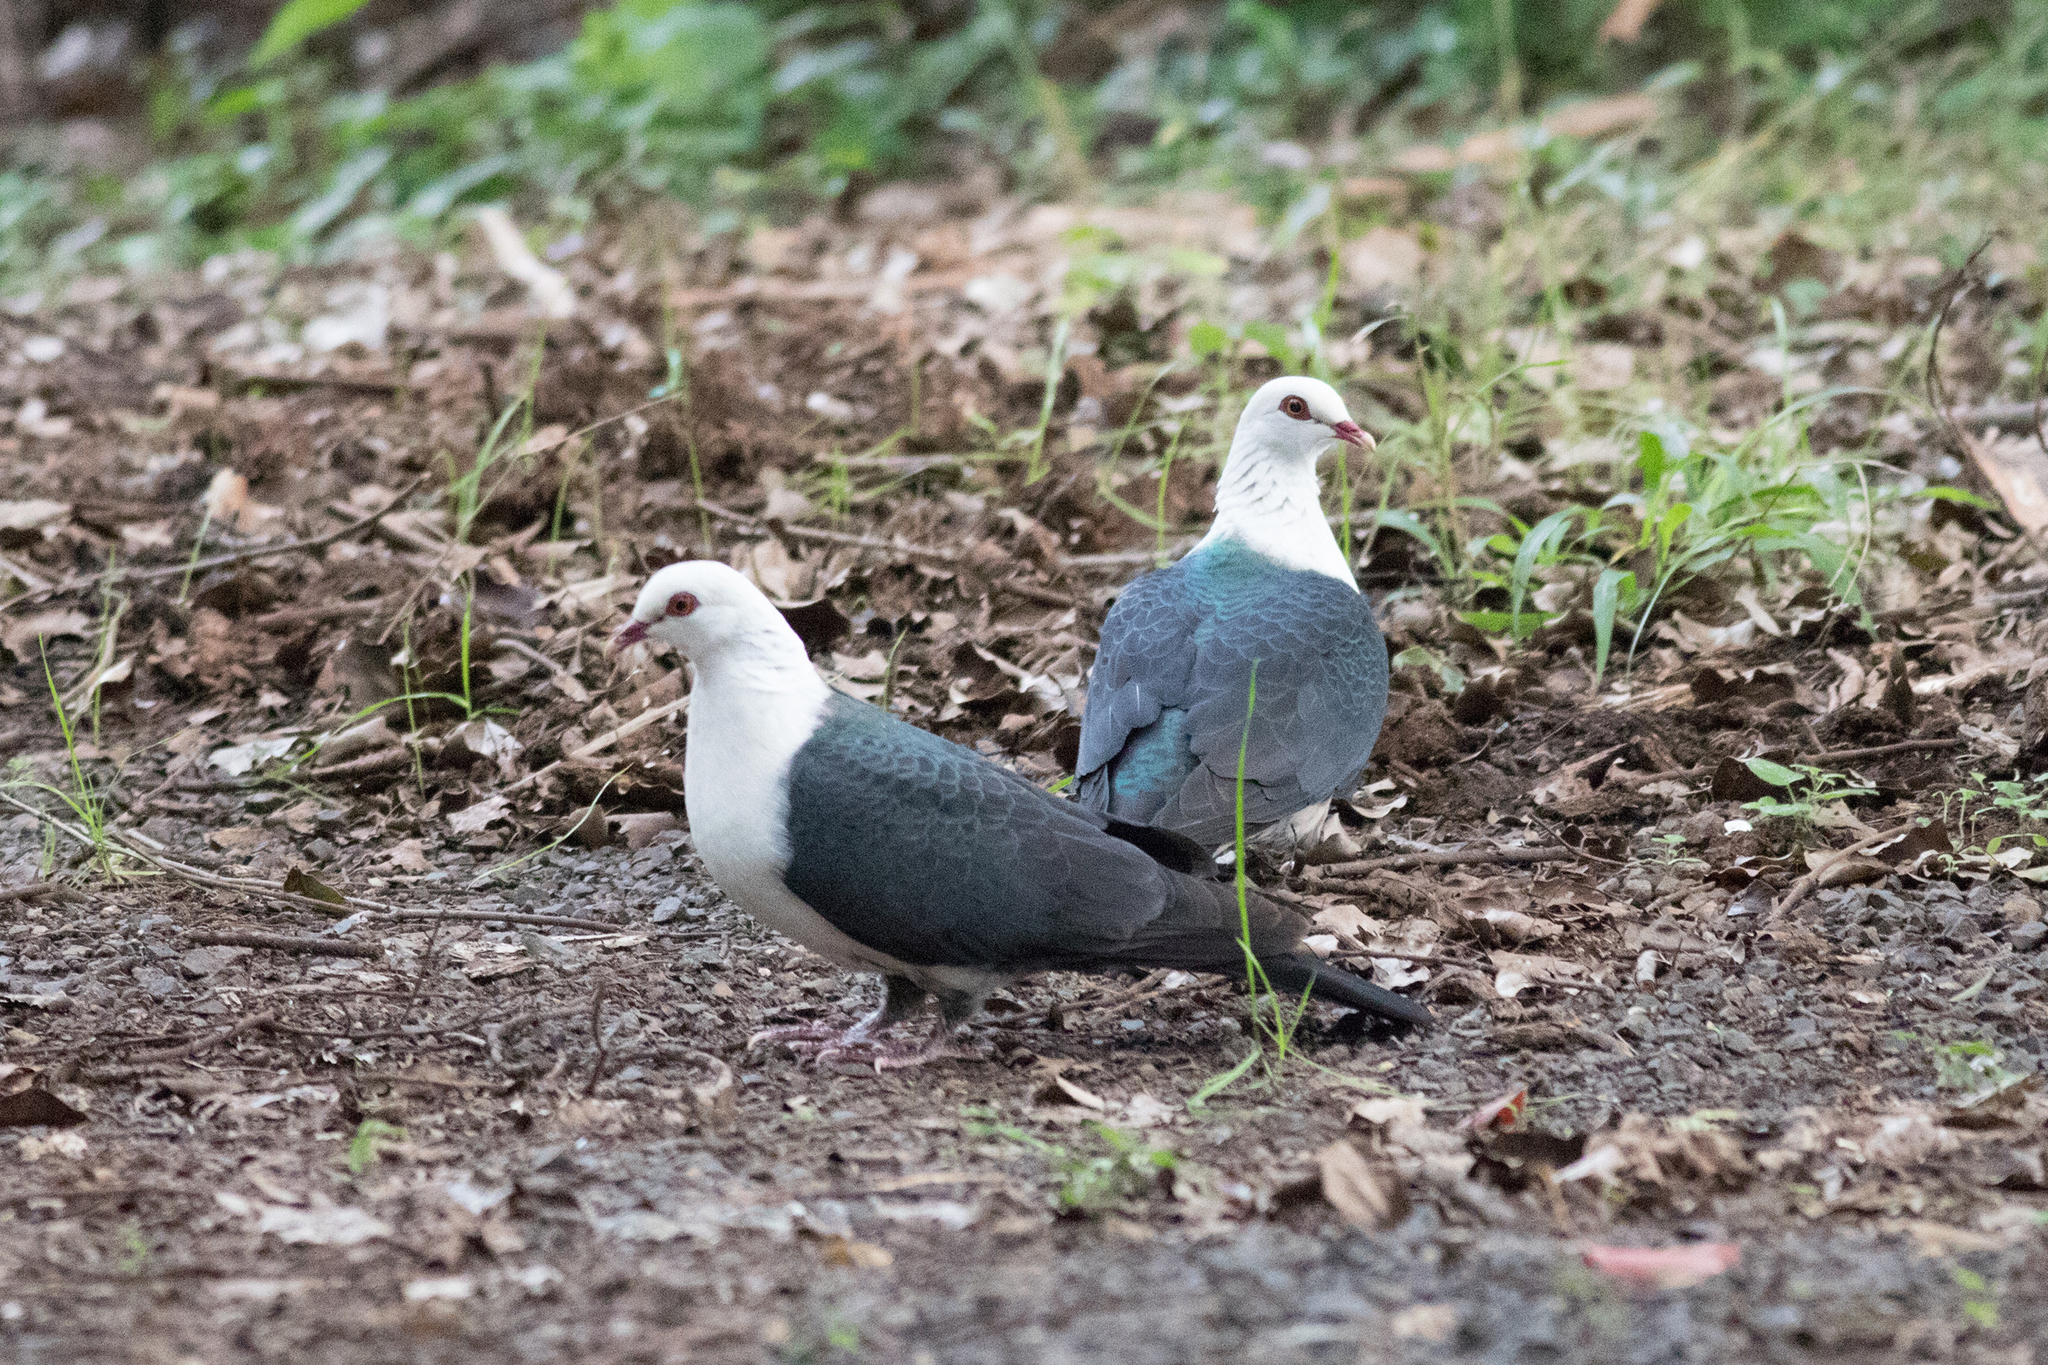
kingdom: Animalia
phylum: Chordata
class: Aves
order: Columbiformes
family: Columbidae
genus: Columba
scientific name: Columba leucomela
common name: White-headed pigeon
